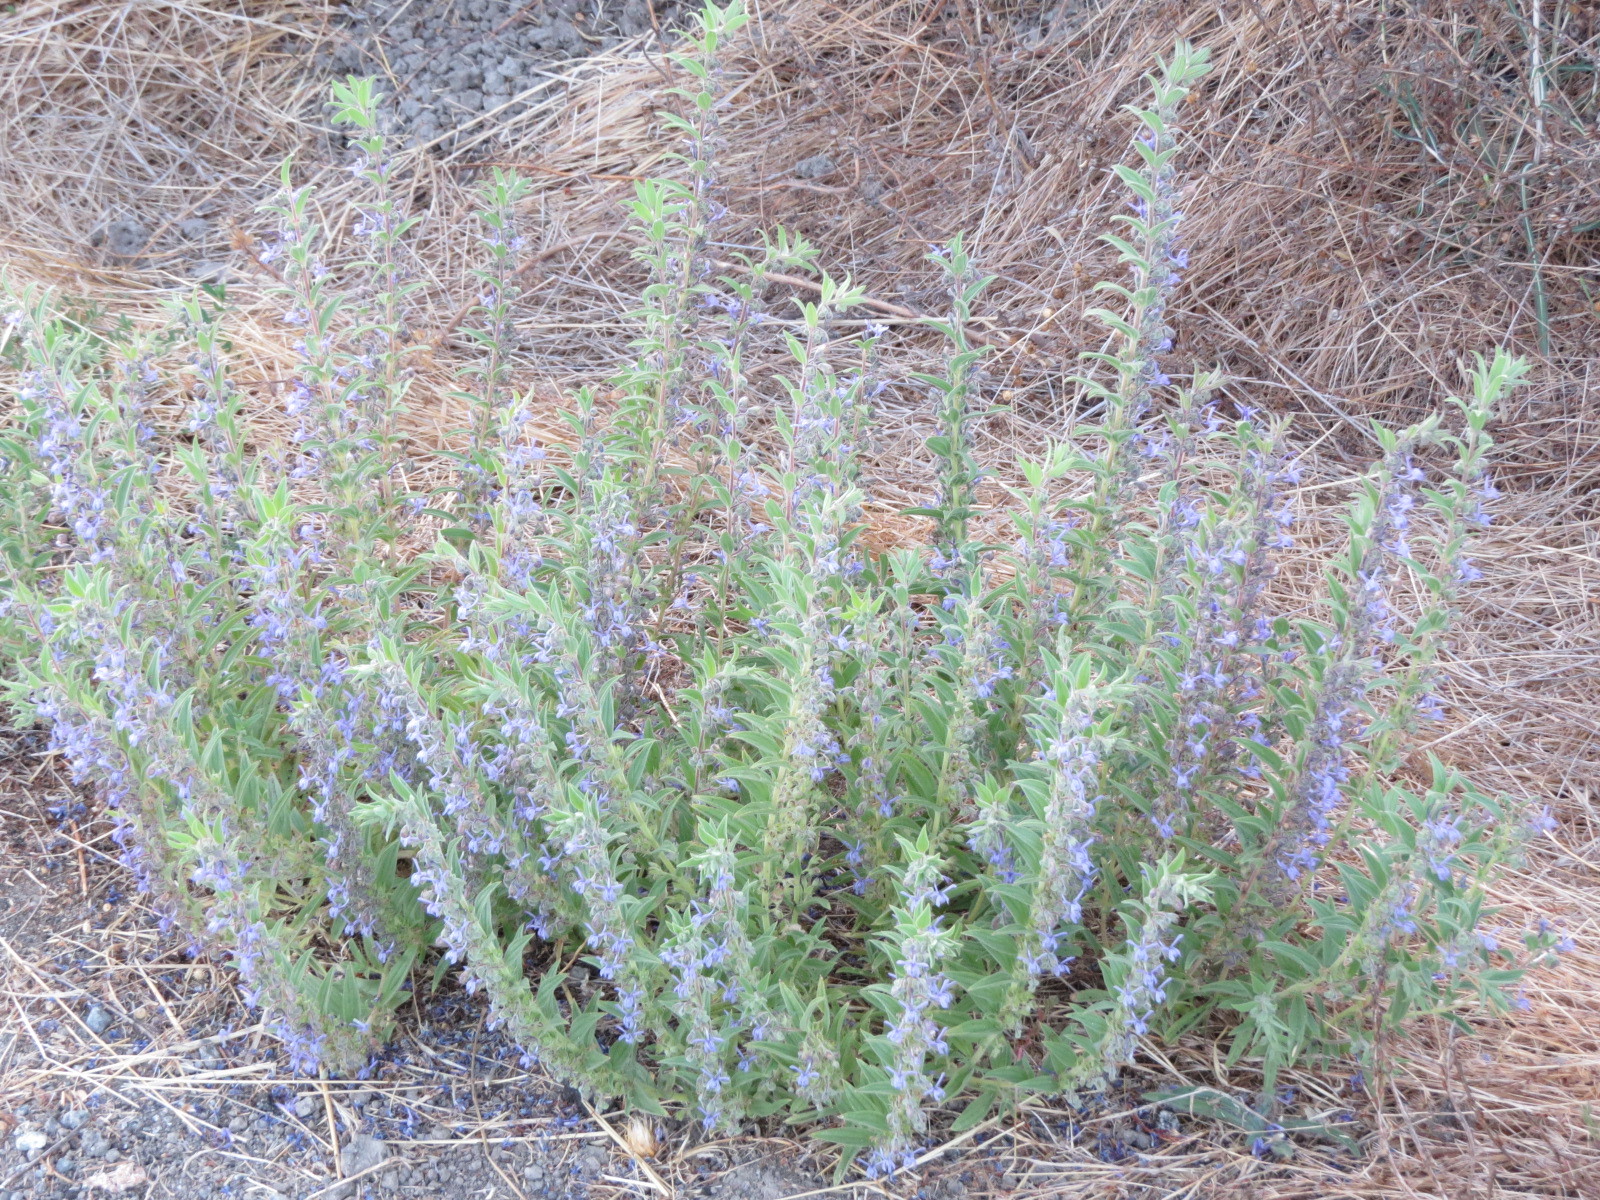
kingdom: Plantae
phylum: Tracheophyta
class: Magnoliopsida
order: Lamiales
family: Lamiaceae
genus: Trichostema
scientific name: Trichostema lanceolatum
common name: Vinegar-weed
